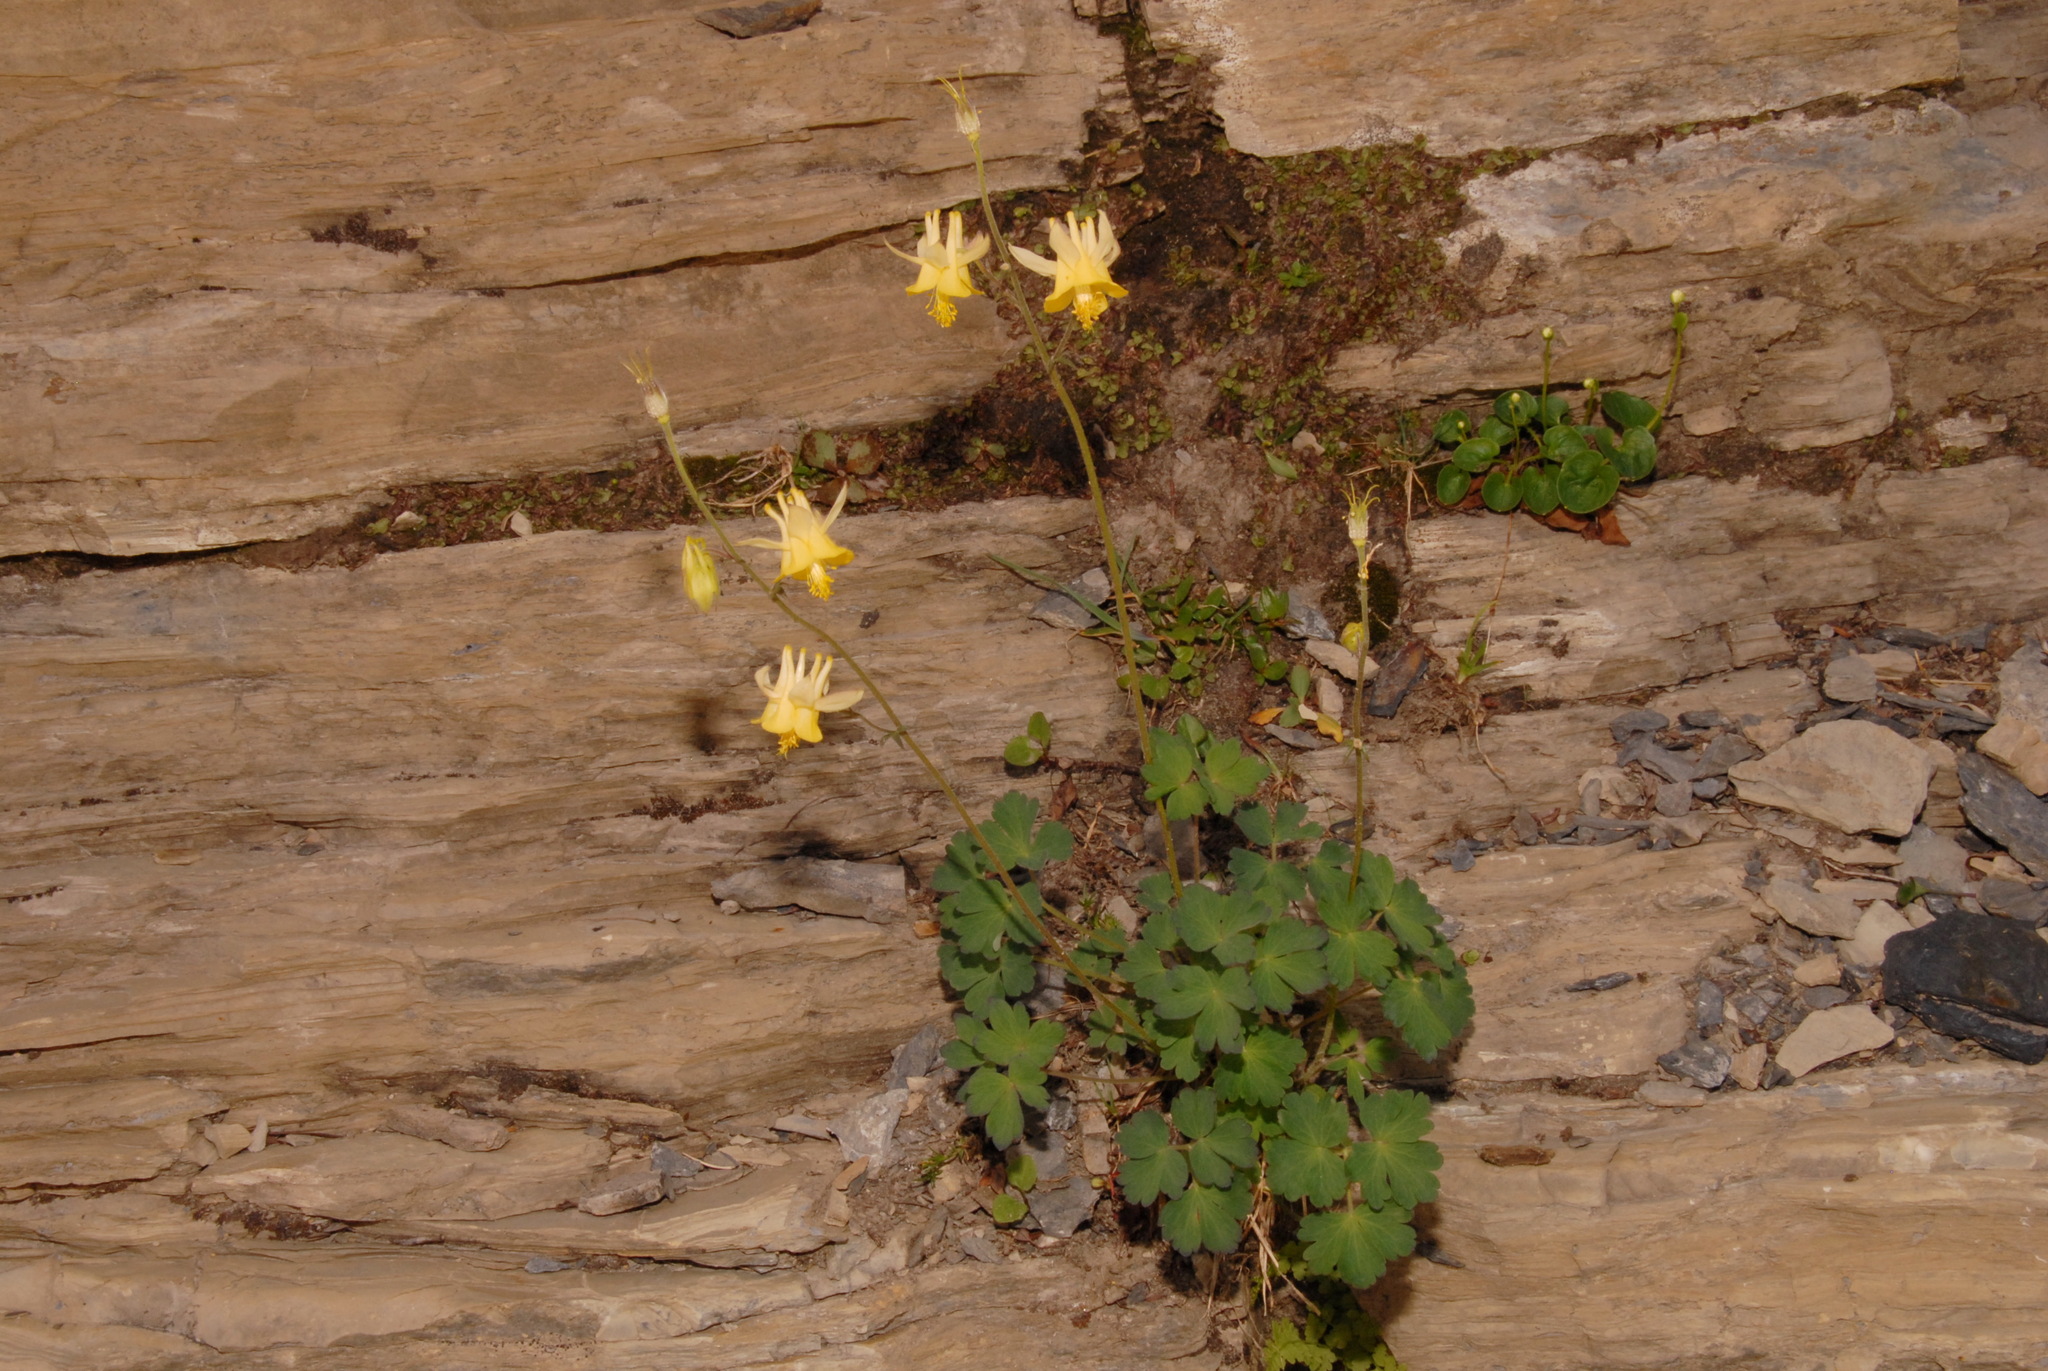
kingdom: Plantae
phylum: Tracheophyta
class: Magnoliopsida
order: Ranunculales
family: Ranunculaceae
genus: Aquilegia
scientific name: Aquilegia flavescens
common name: Yellow columbine
